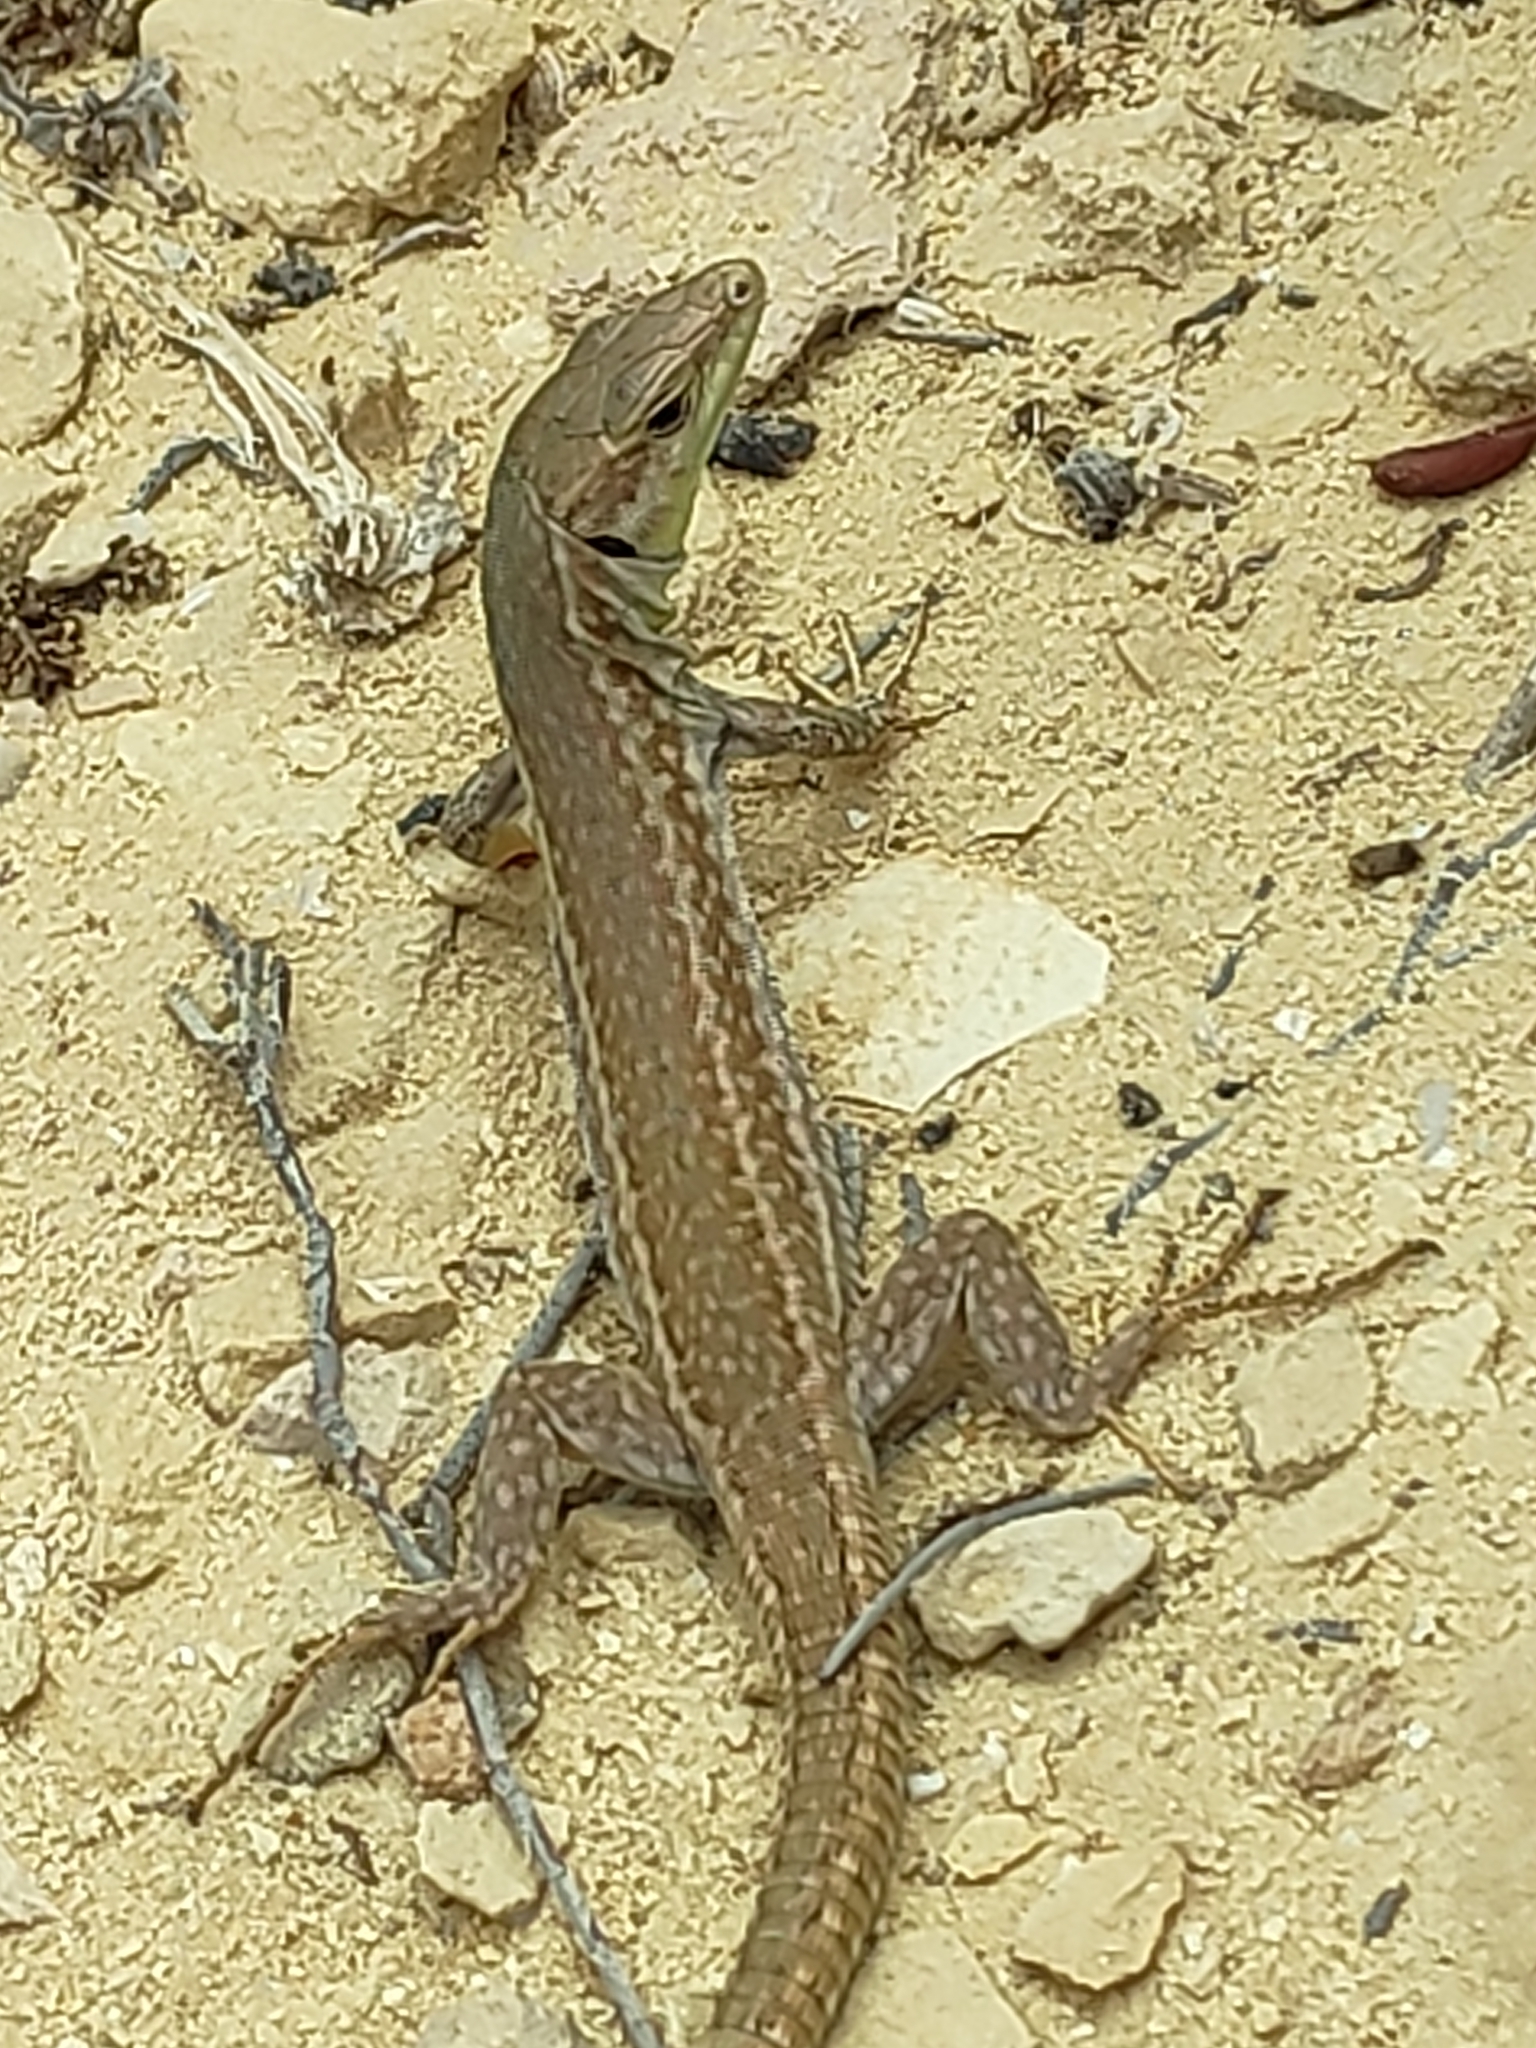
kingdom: Animalia
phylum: Chordata
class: Squamata
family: Lacertidae
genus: Podarcis
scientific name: Podarcis filfolensis
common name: Maltese wall lizard
